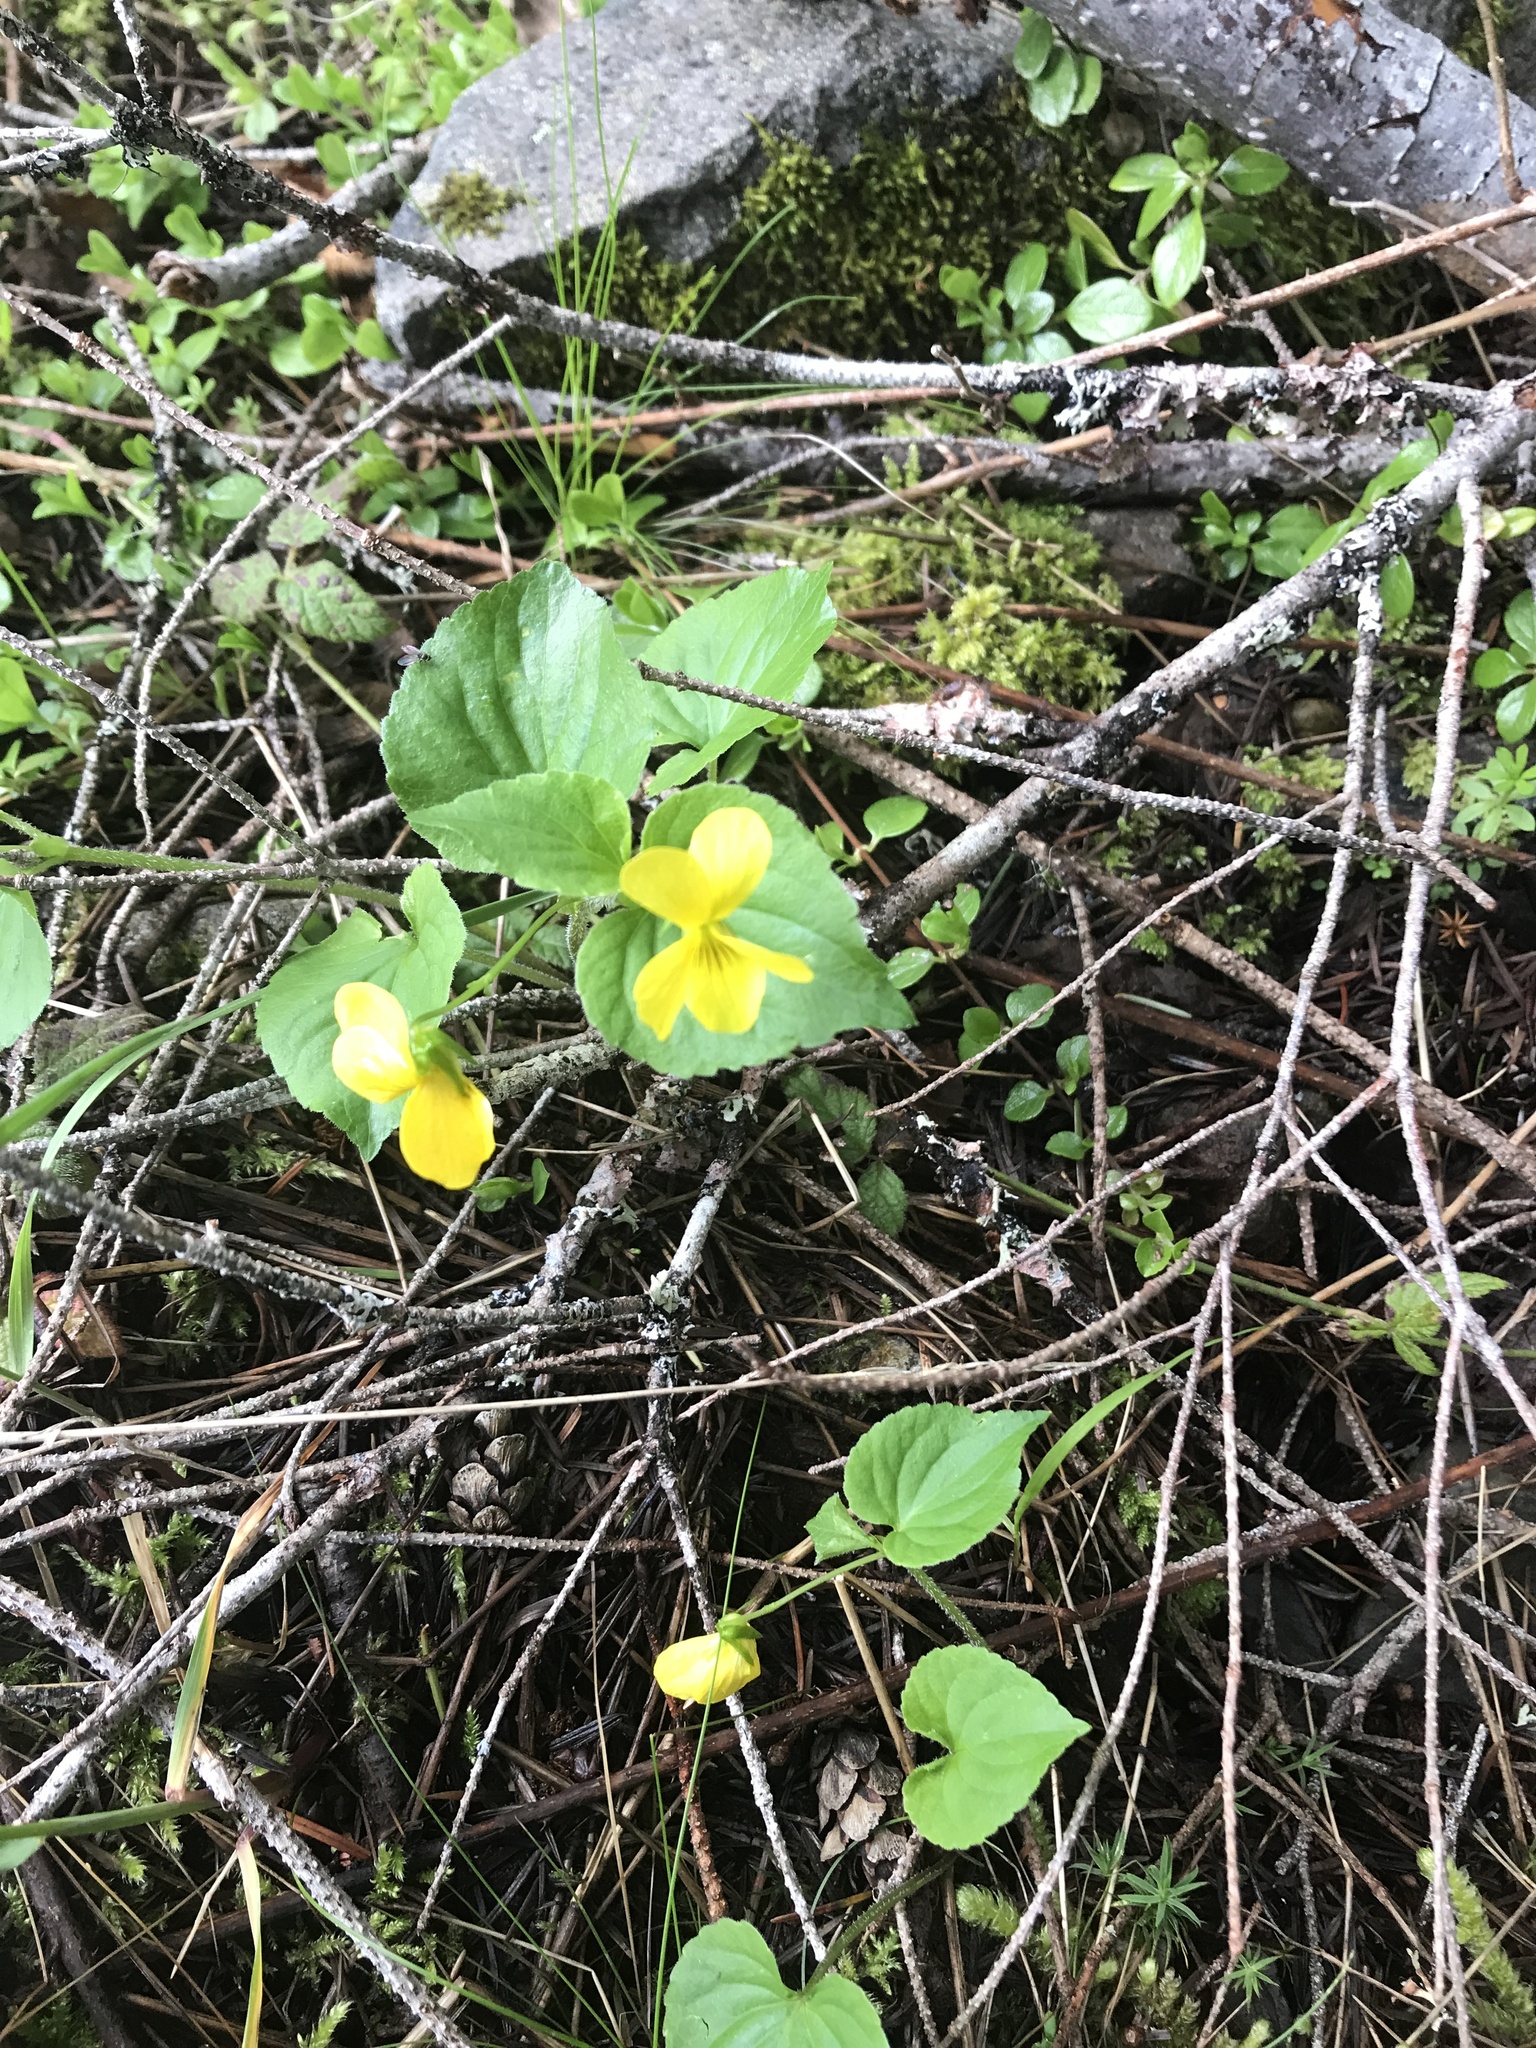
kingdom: Plantae
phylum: Tracheophyta
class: Magnoliopsida
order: Malpighiales
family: Violaceae
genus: Viola
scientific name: Viola glabella
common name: Stream violet
